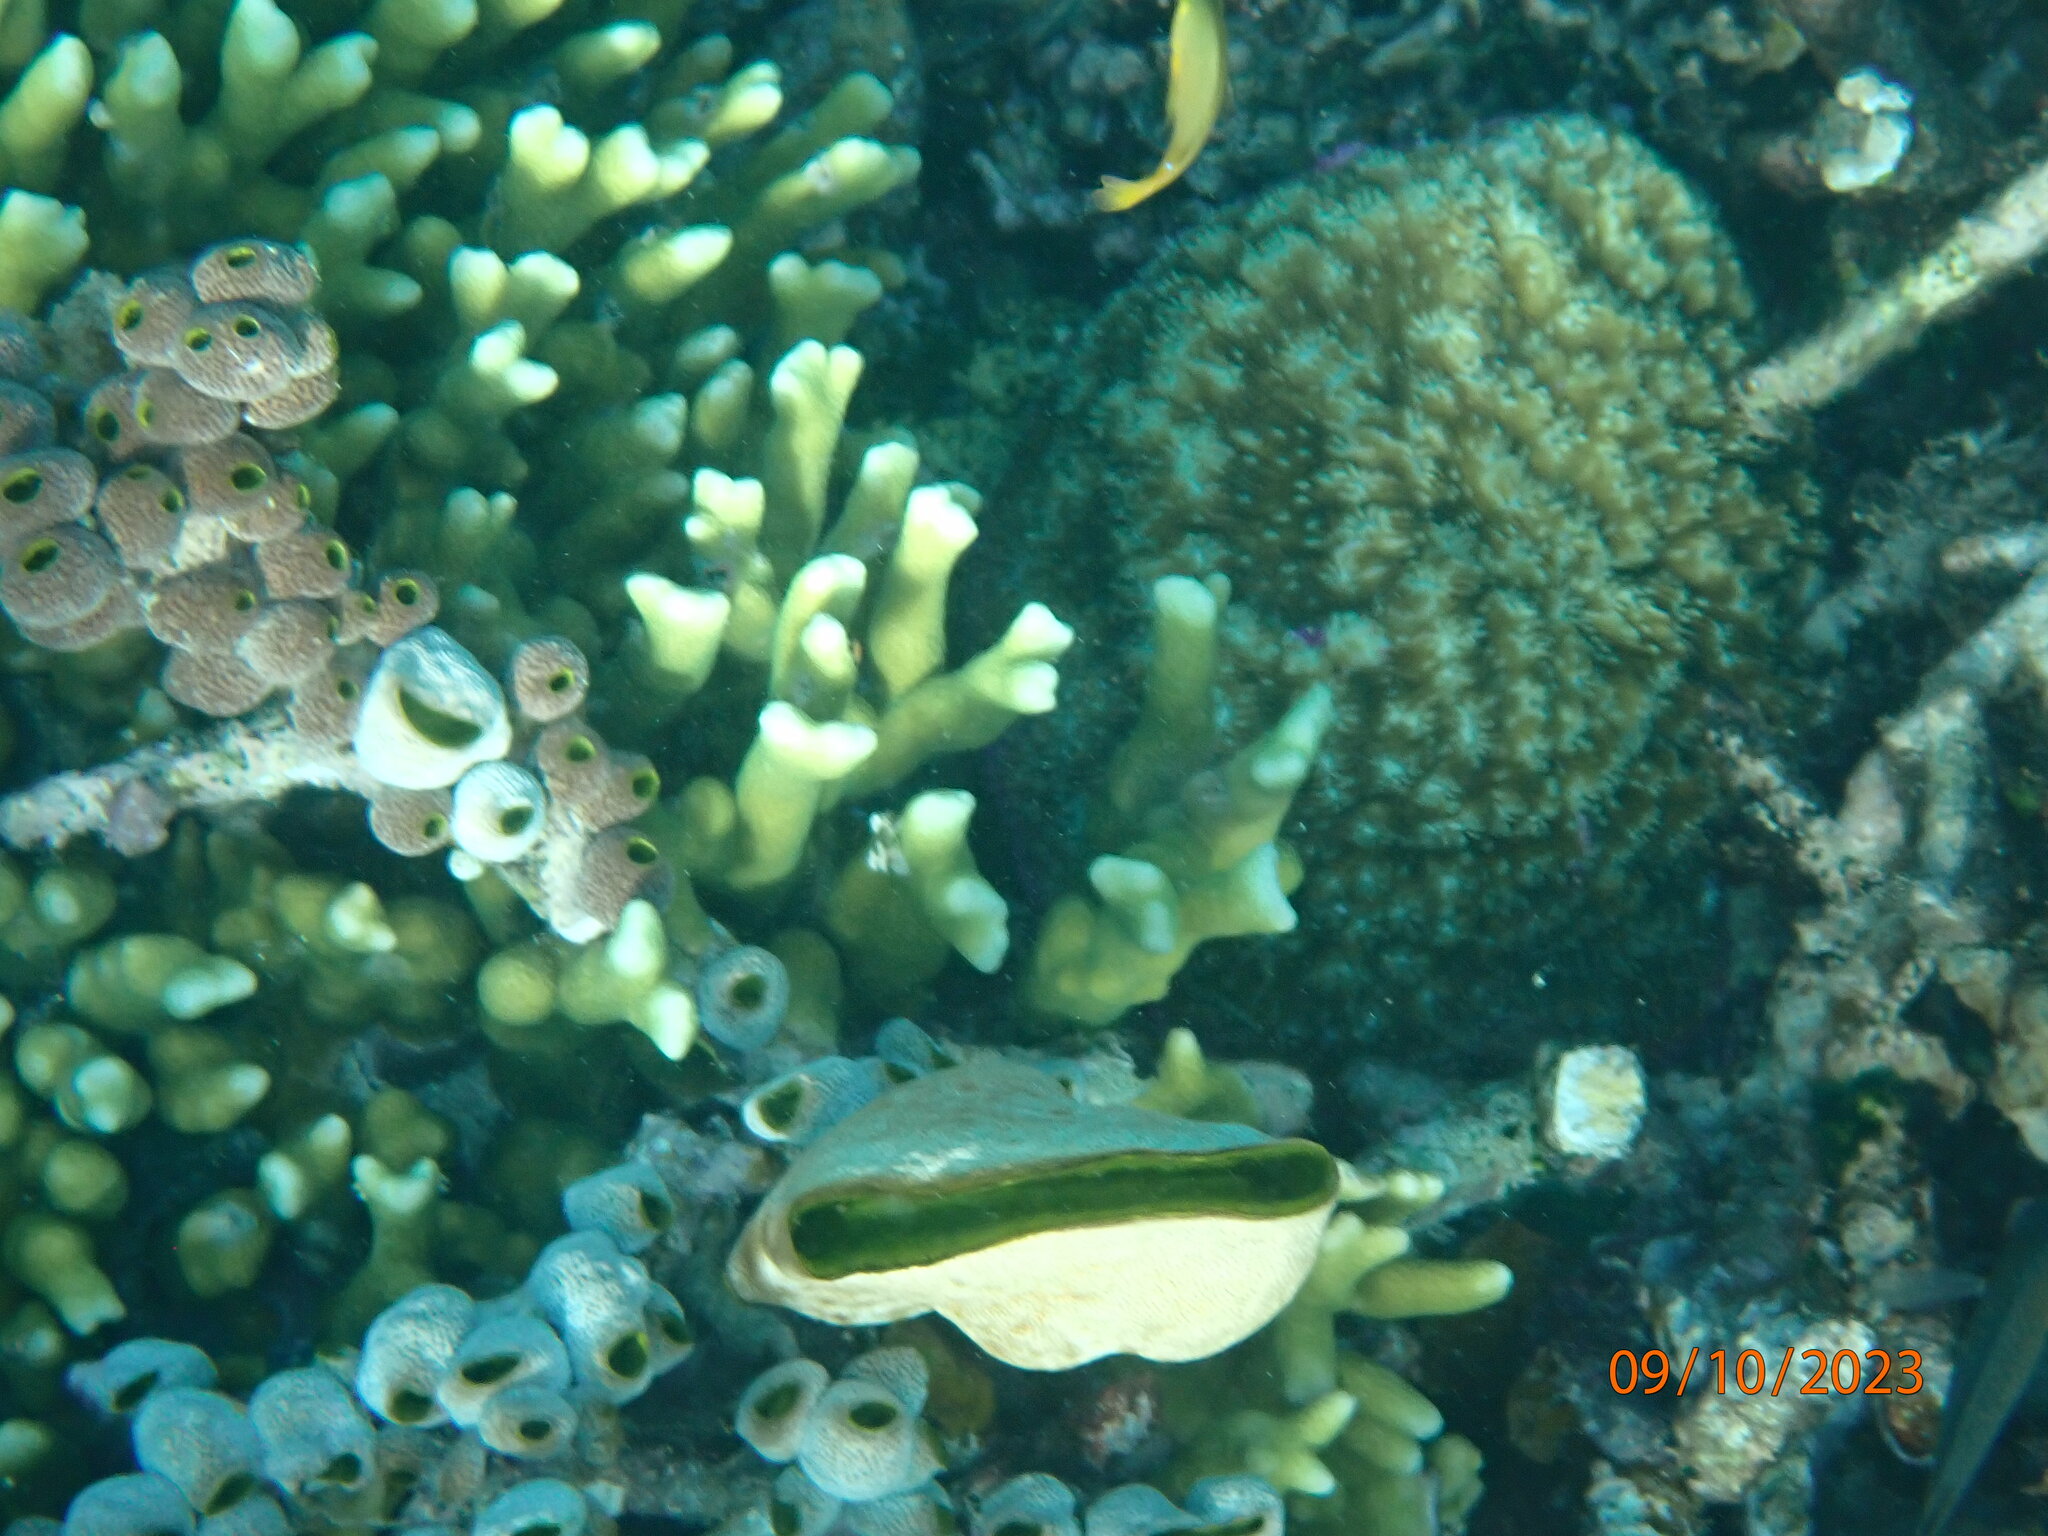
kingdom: Animalia
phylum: Chordata
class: Ascidiacea
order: Aplousobranchia
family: Didemnidae
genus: Didemnum
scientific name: Didemnum molle
